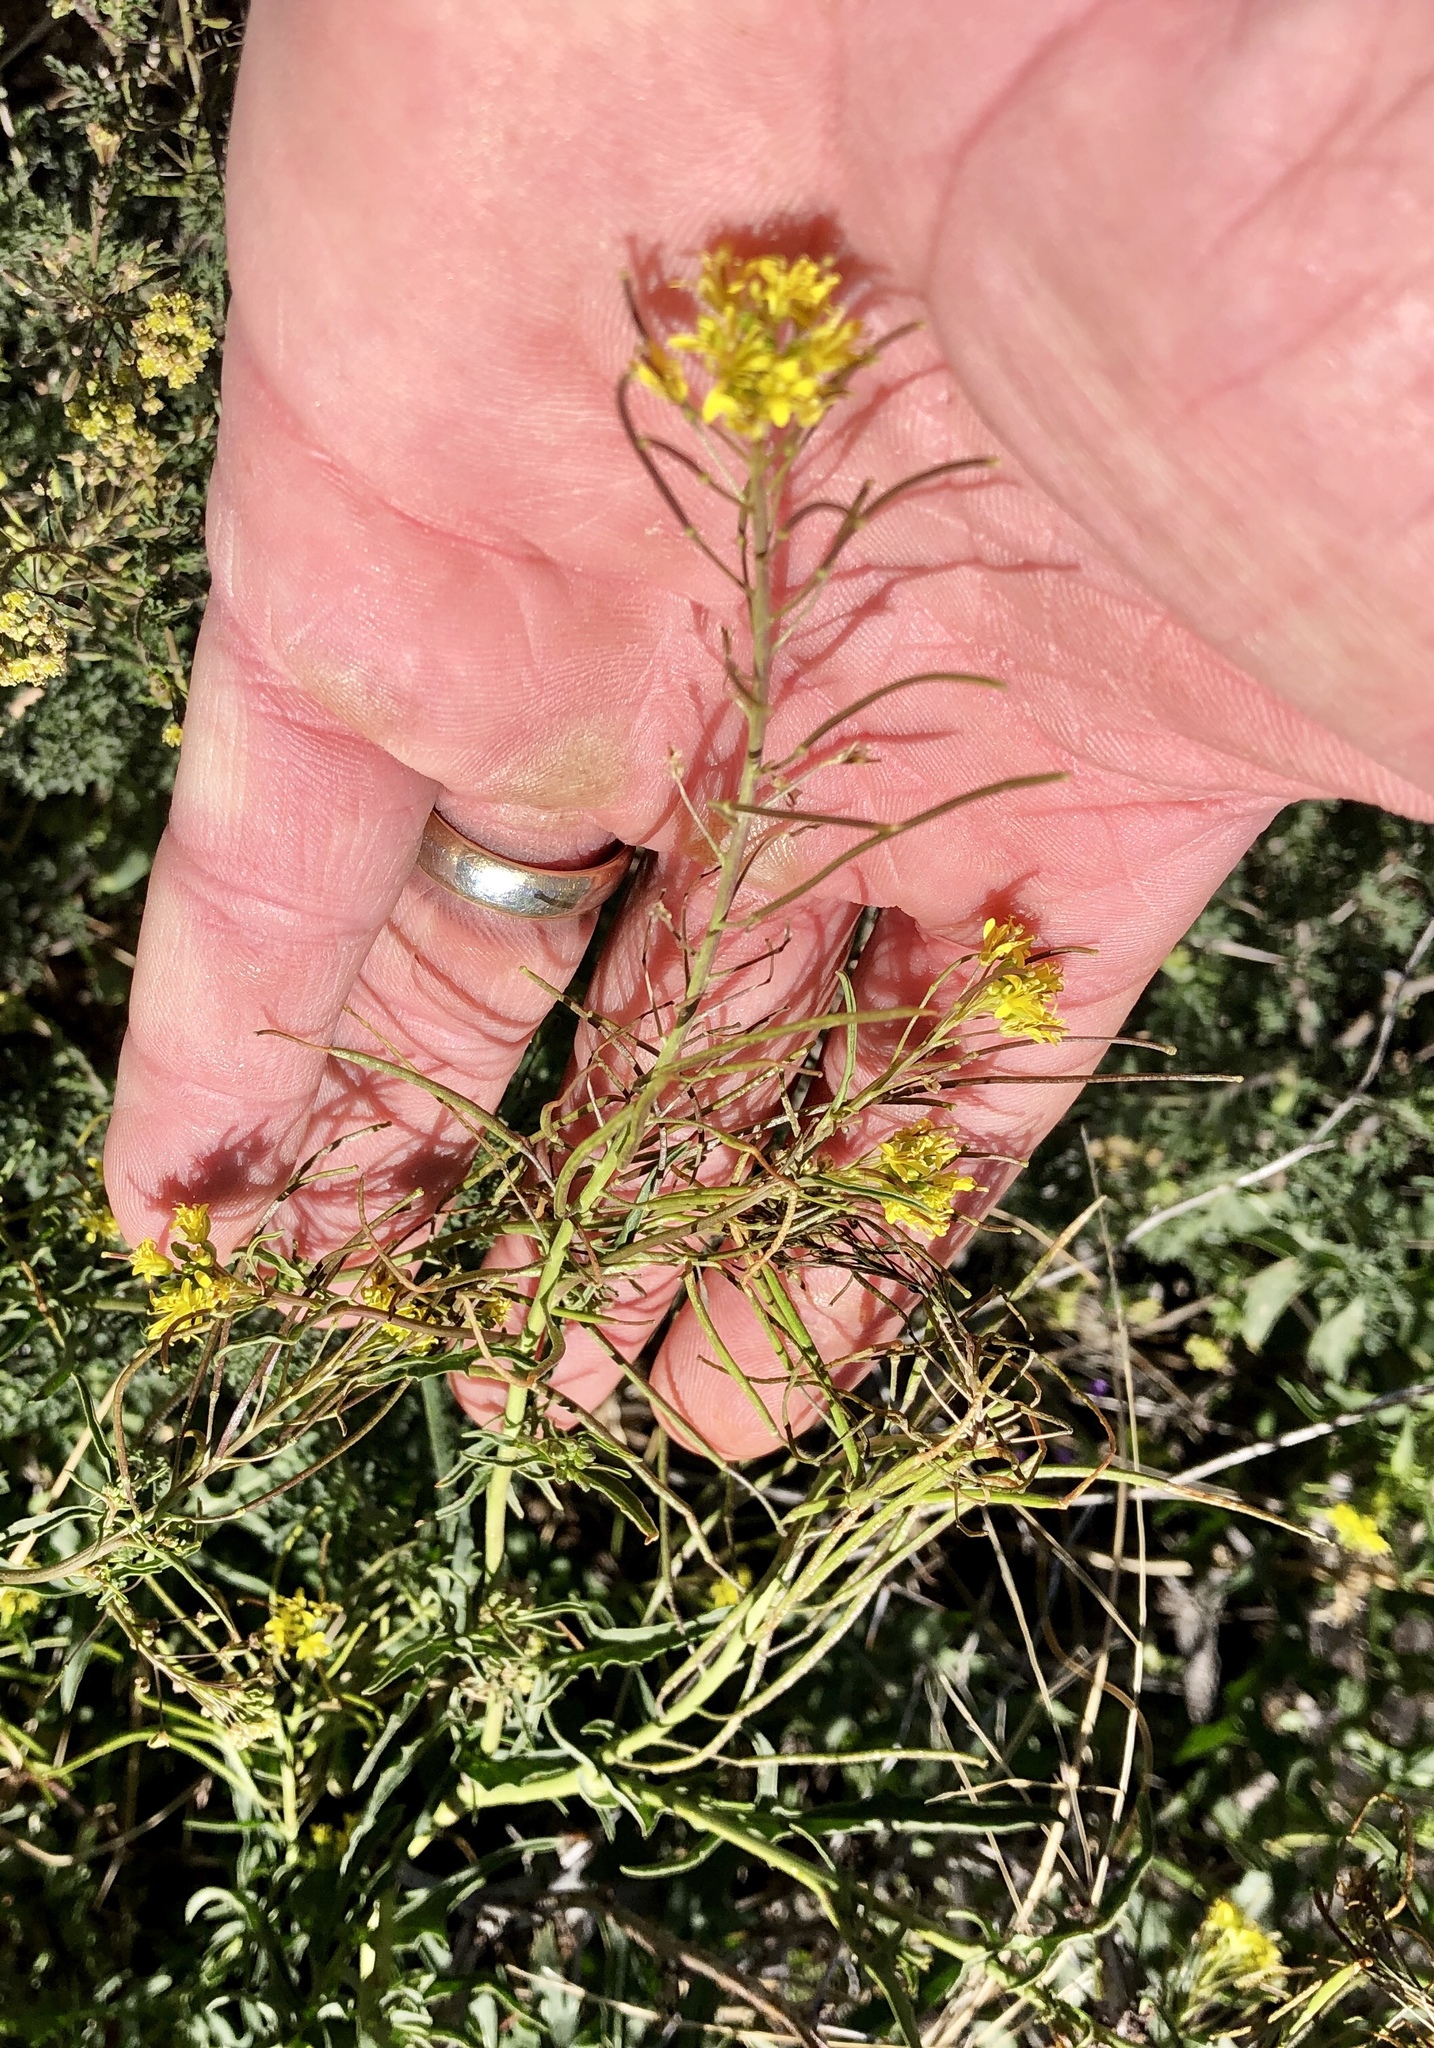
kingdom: Plantae
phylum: Tracheophyta
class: Magnoliopsida
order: Brassicales
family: Brassicaceae
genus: Sisymbrium
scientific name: Sisymbrium irio
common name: London rocket
